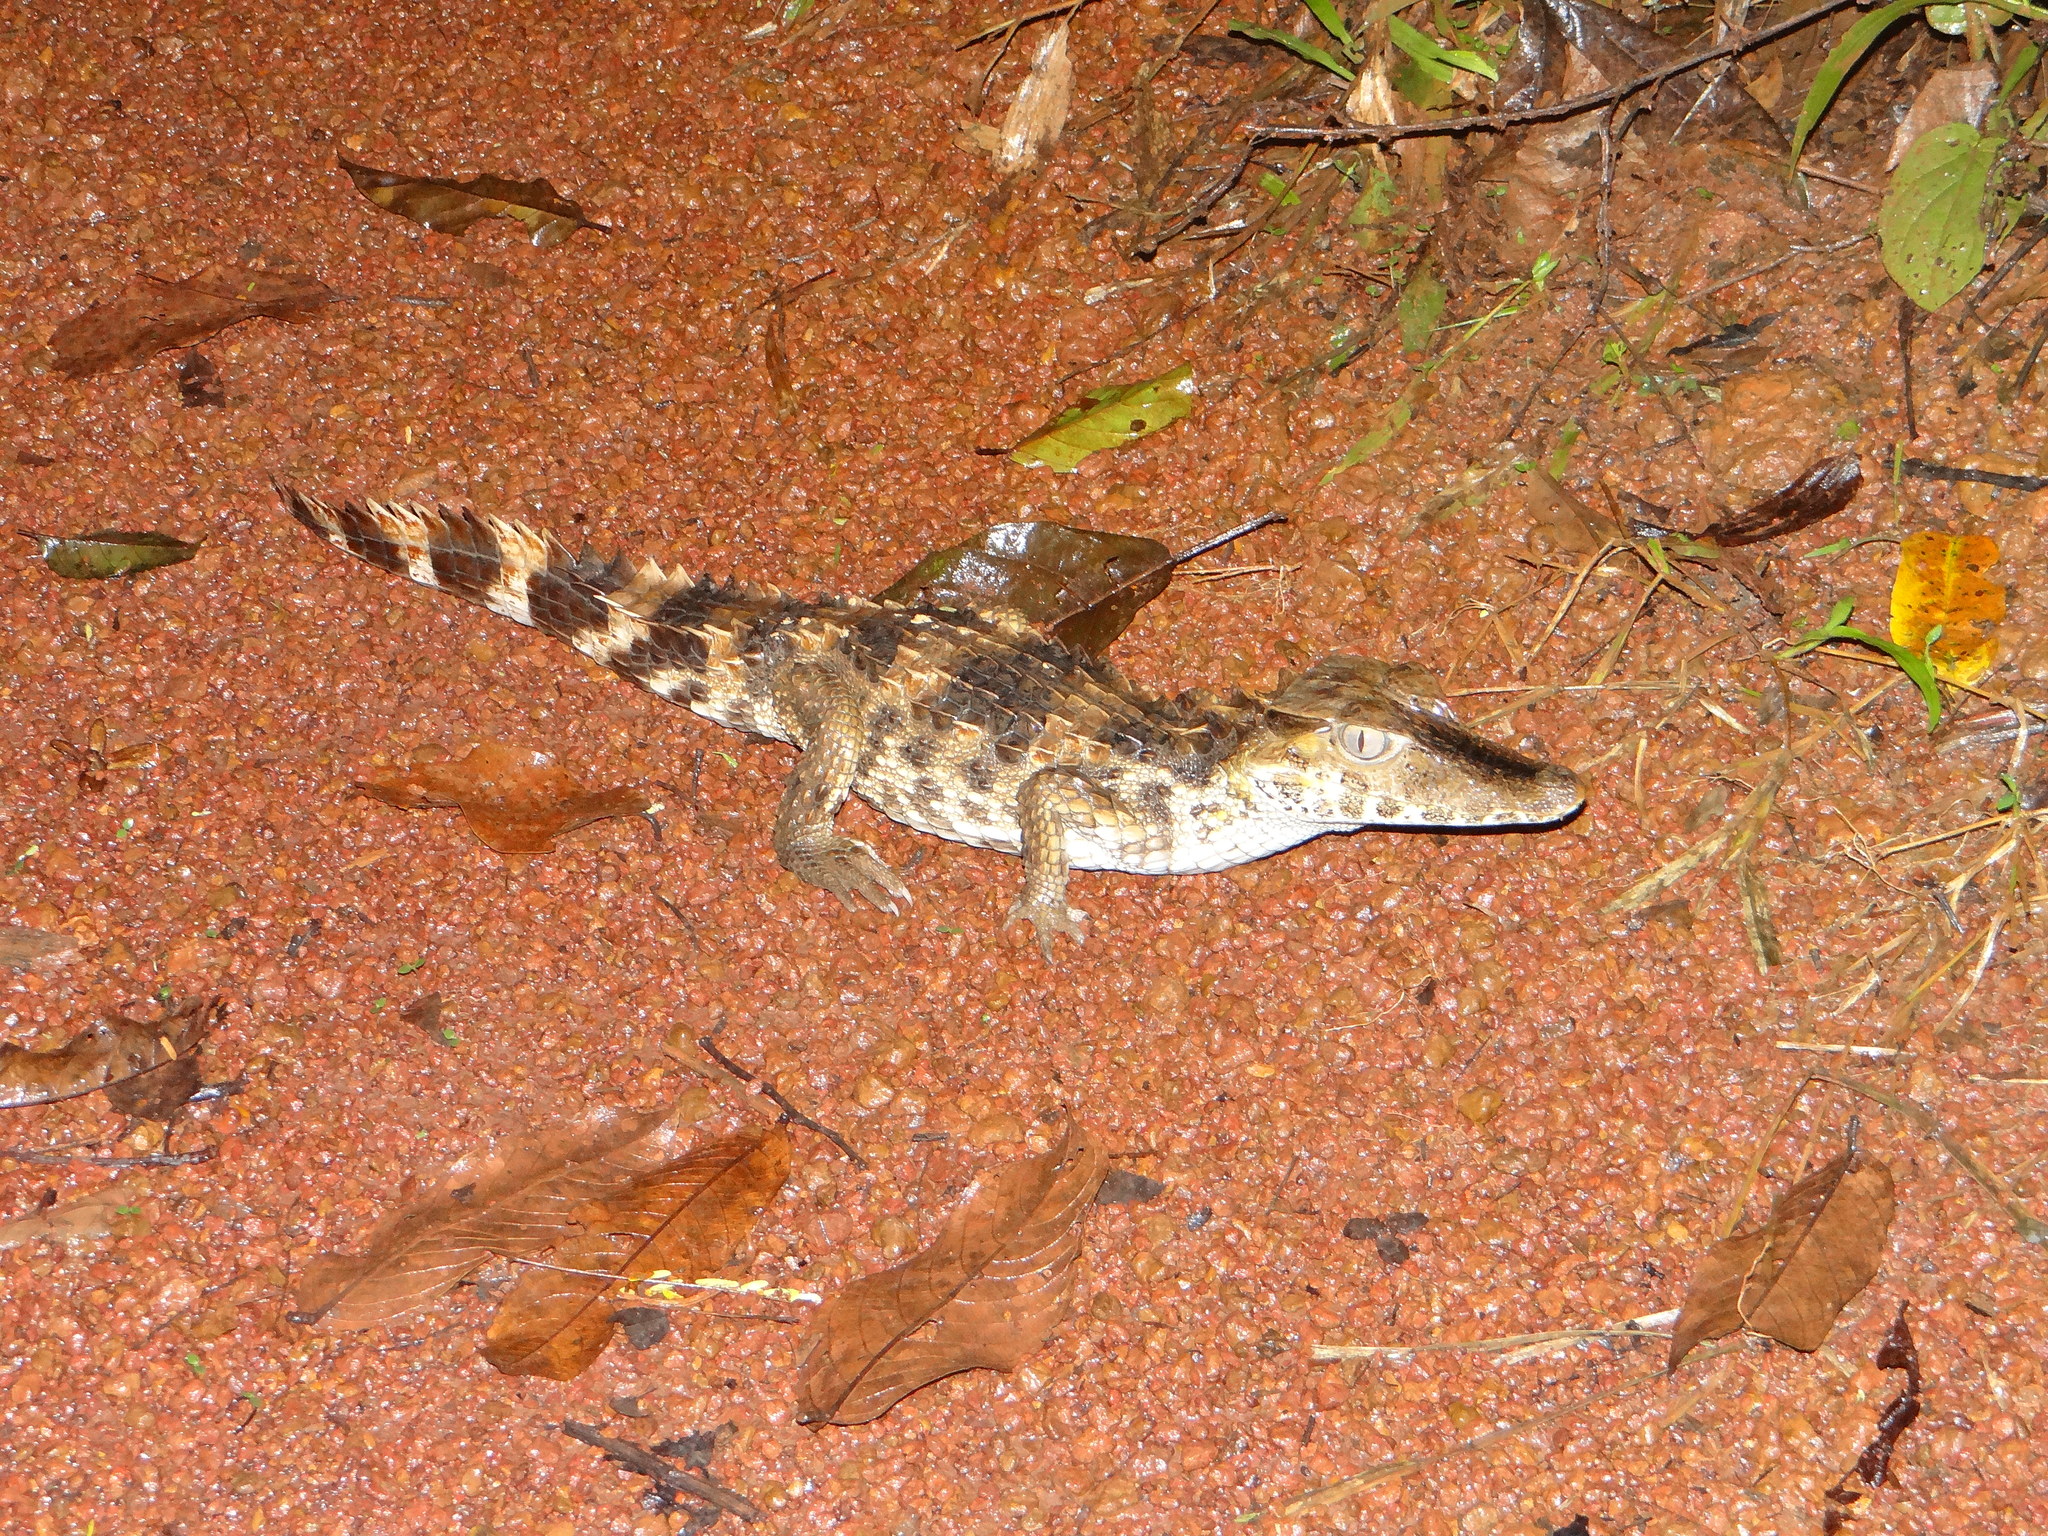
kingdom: Animalia
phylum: Chordata
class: Crocodylia
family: Alligatoridae
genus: Paleosuchus
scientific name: Paleosuchus trigonatus
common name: Schneider's smooth-fronted caiman
